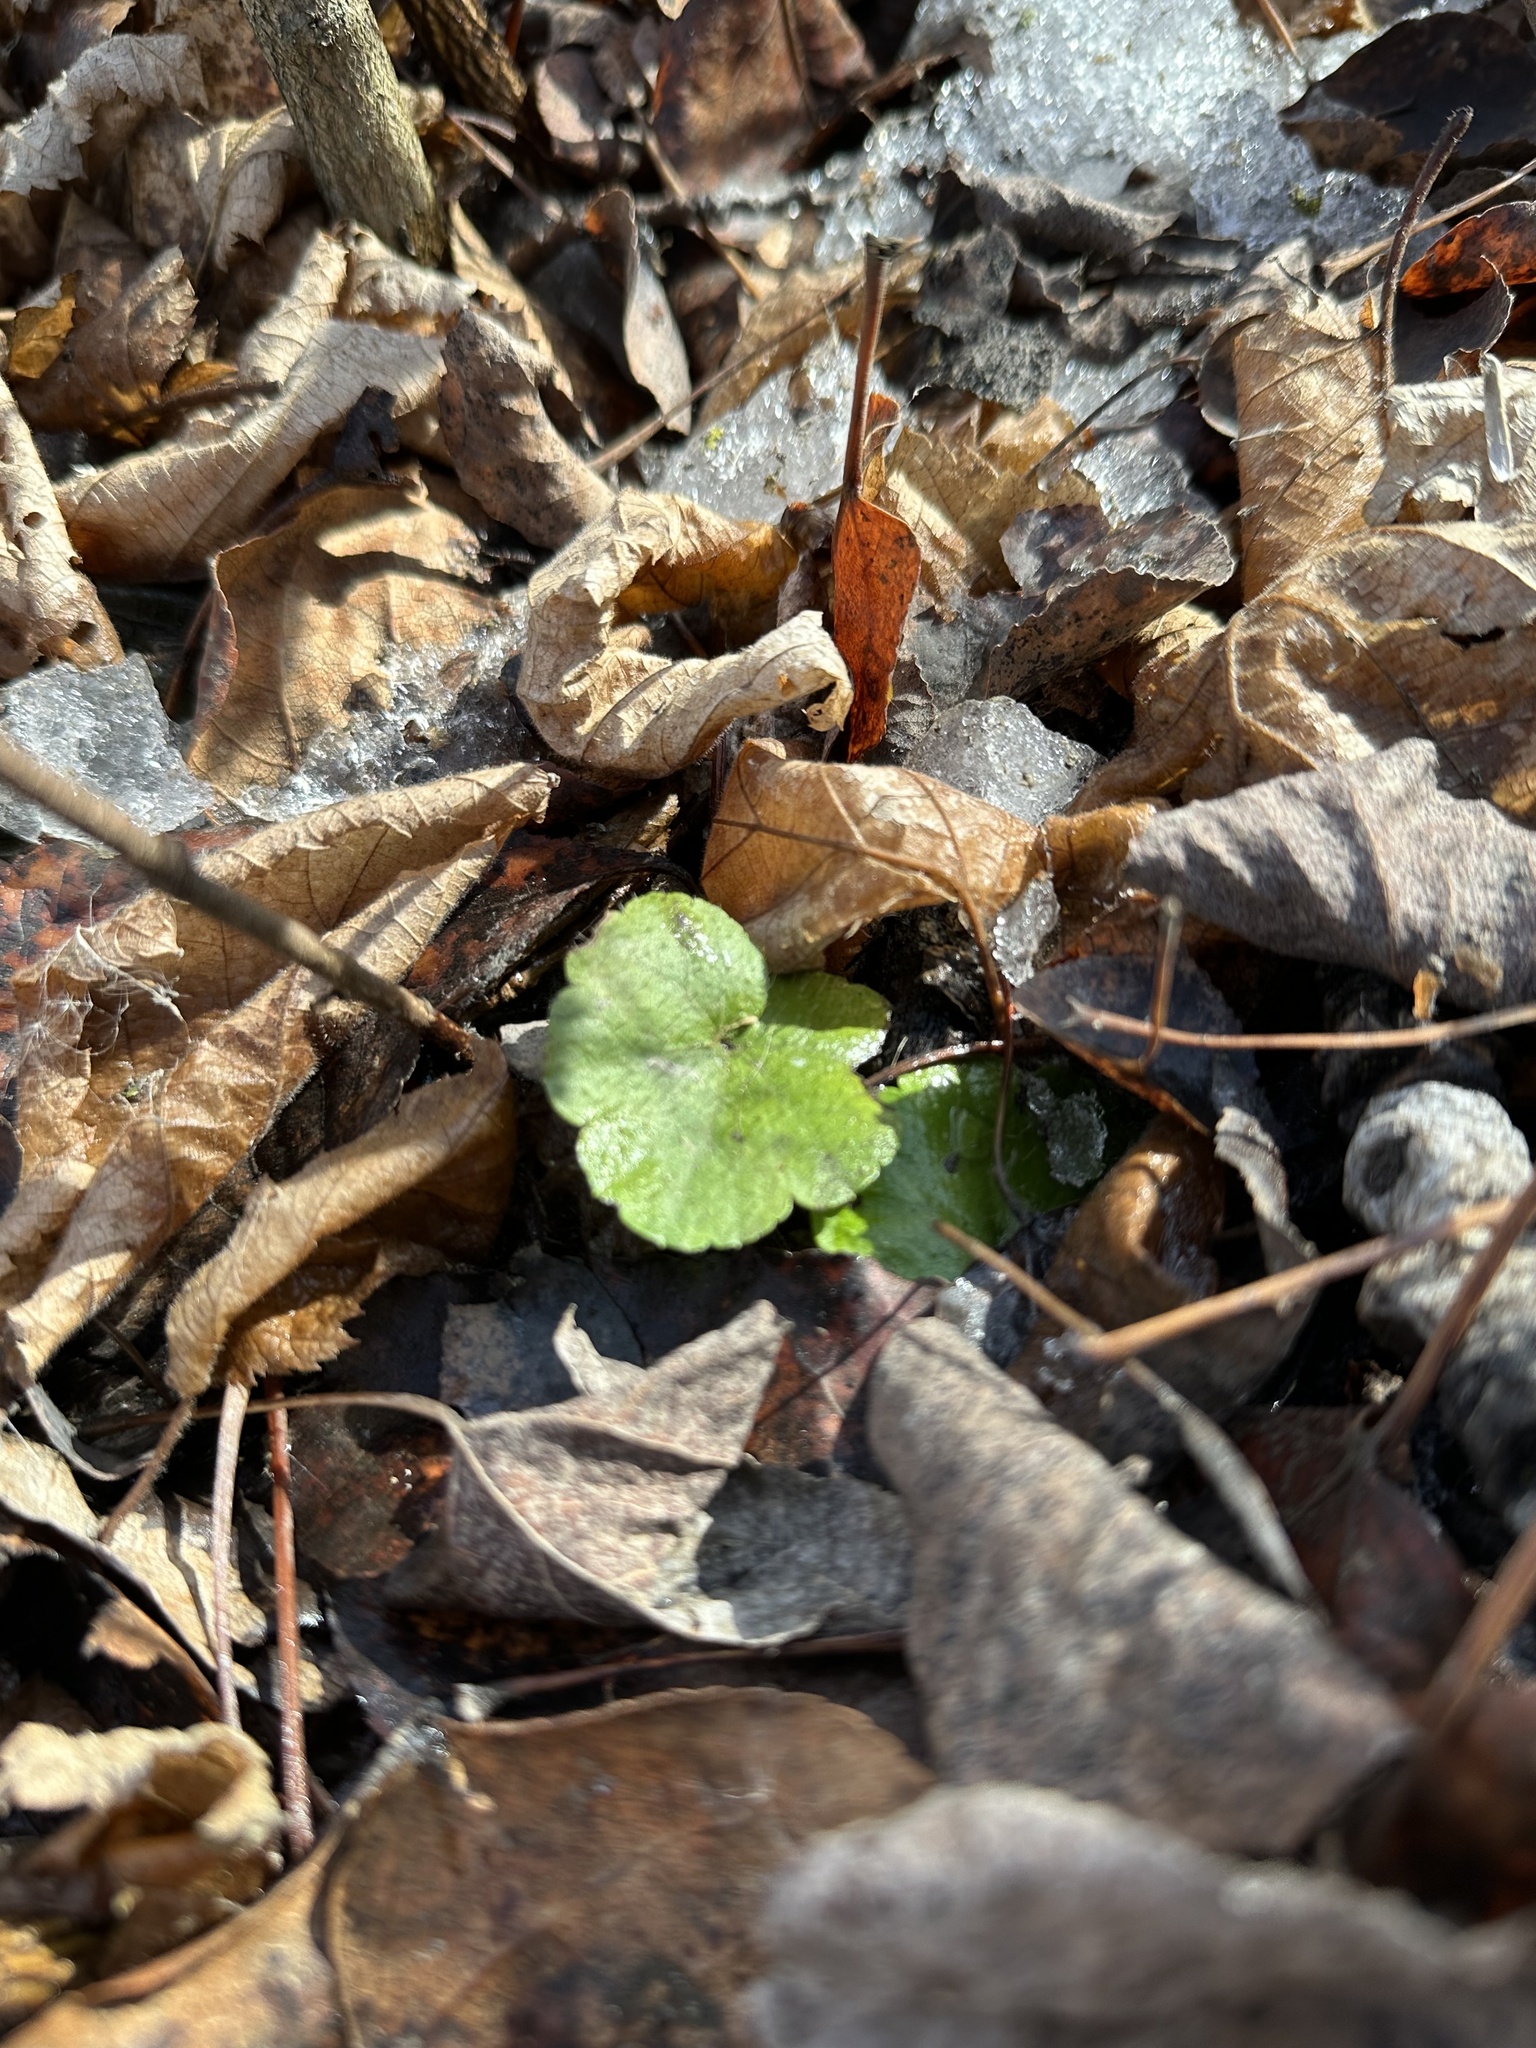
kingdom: Plantae
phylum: Tracheophyta
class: Magnoliopsida
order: Saxifragales
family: Saxifragaceae
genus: Mitella
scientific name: Mitella nuda
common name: Bare-stemmed bishop's-cap
